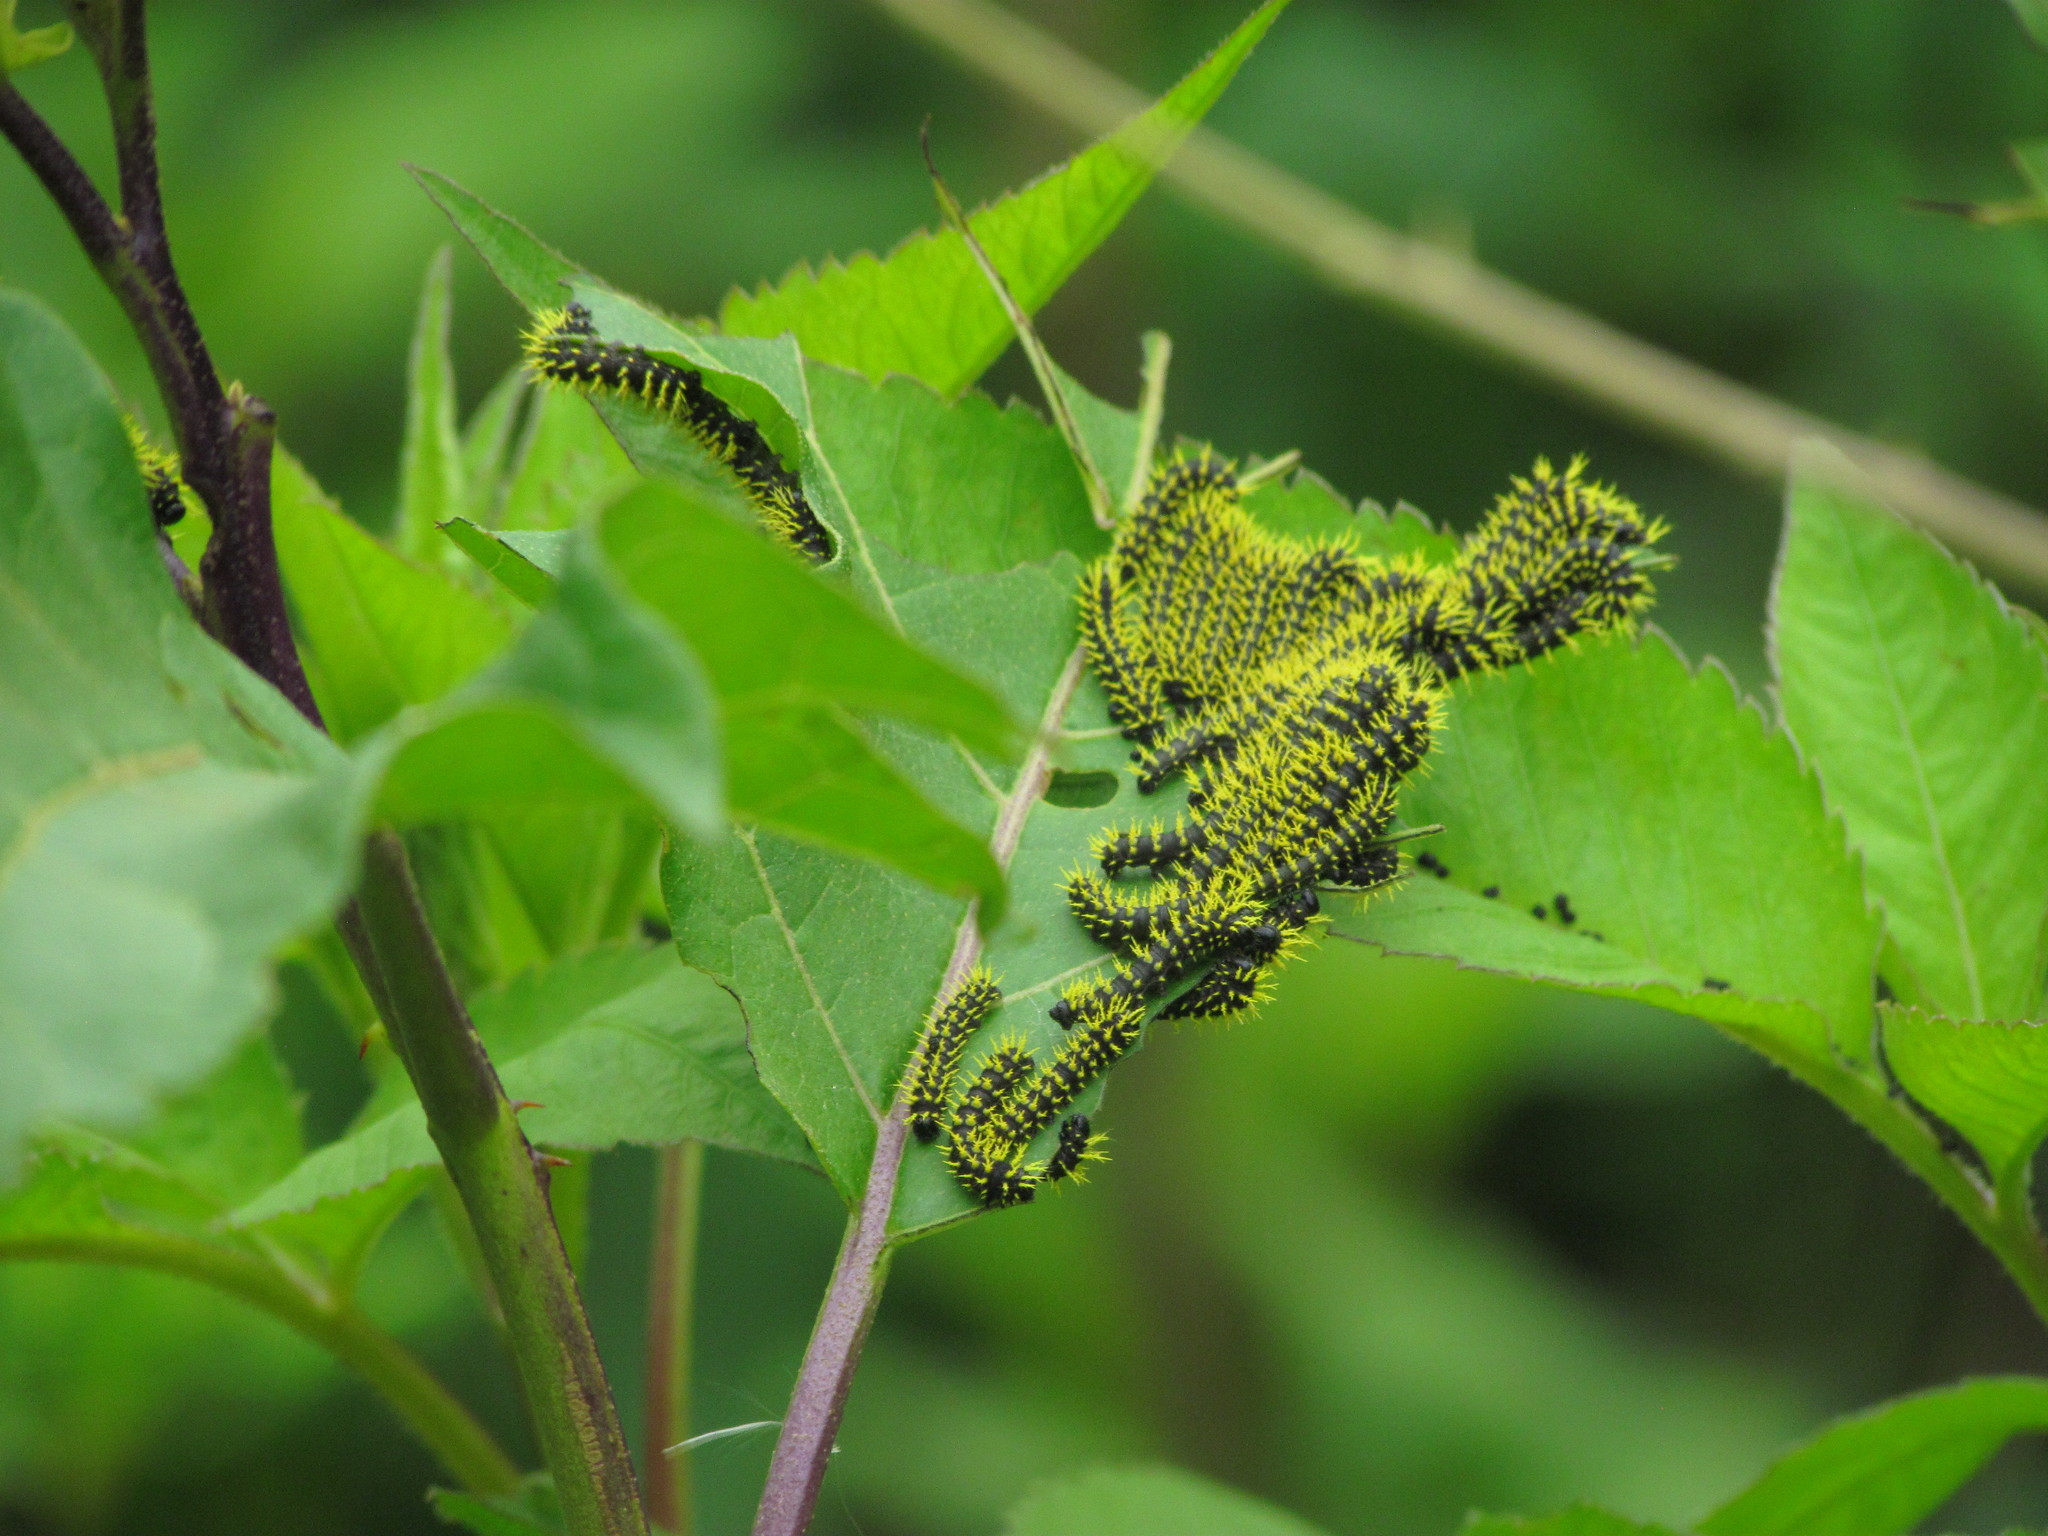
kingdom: Animalia
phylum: Arthropoda
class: Insecta
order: Lepidoptera
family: Saturniidae
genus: Leucanella
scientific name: Leucanella viridescens
